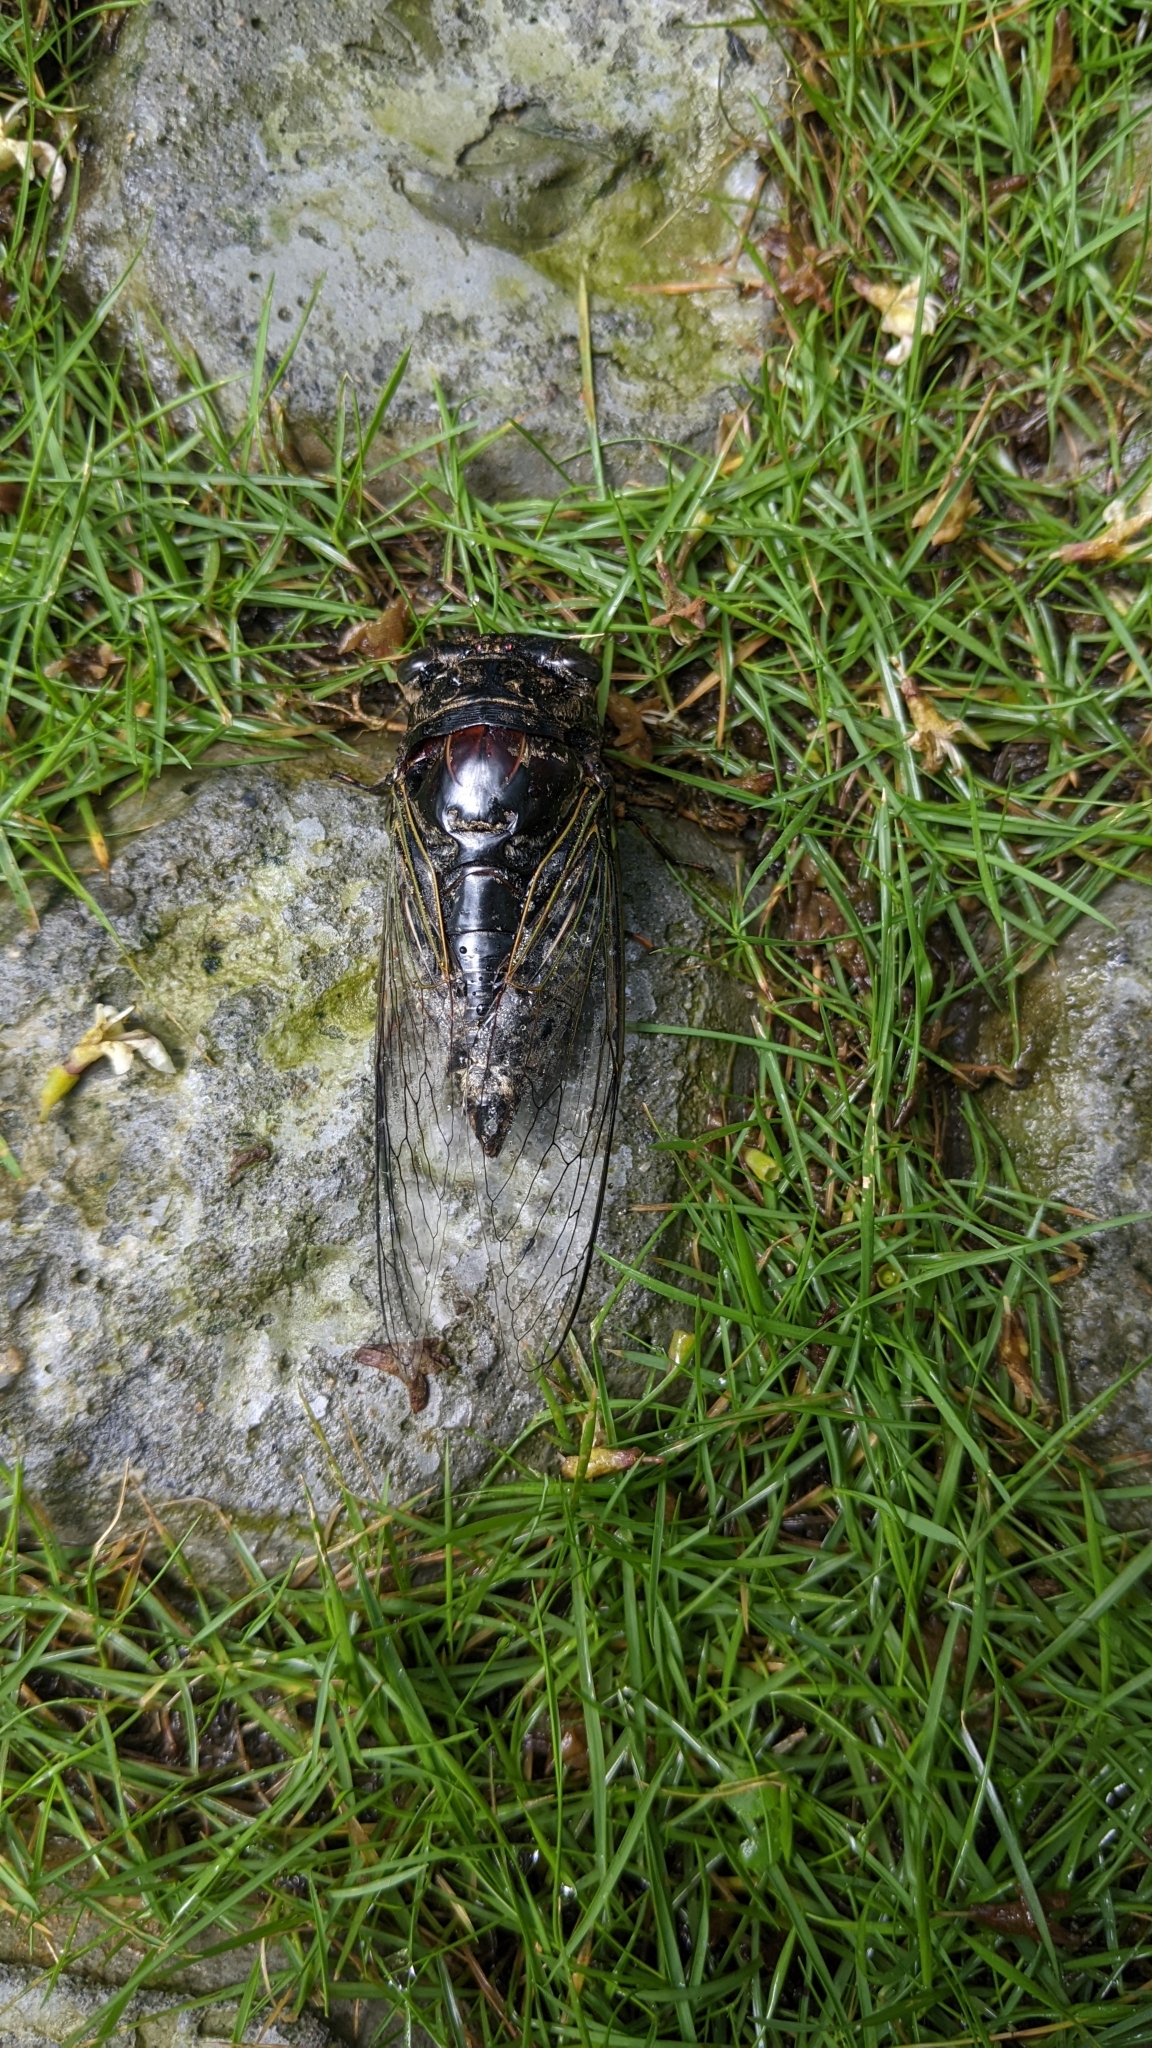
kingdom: Animalia
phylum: Arthropoda
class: Insecta
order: Hemiptera
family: Cicadidae
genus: Cryptotympana
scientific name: Cryptotympana takasagona
